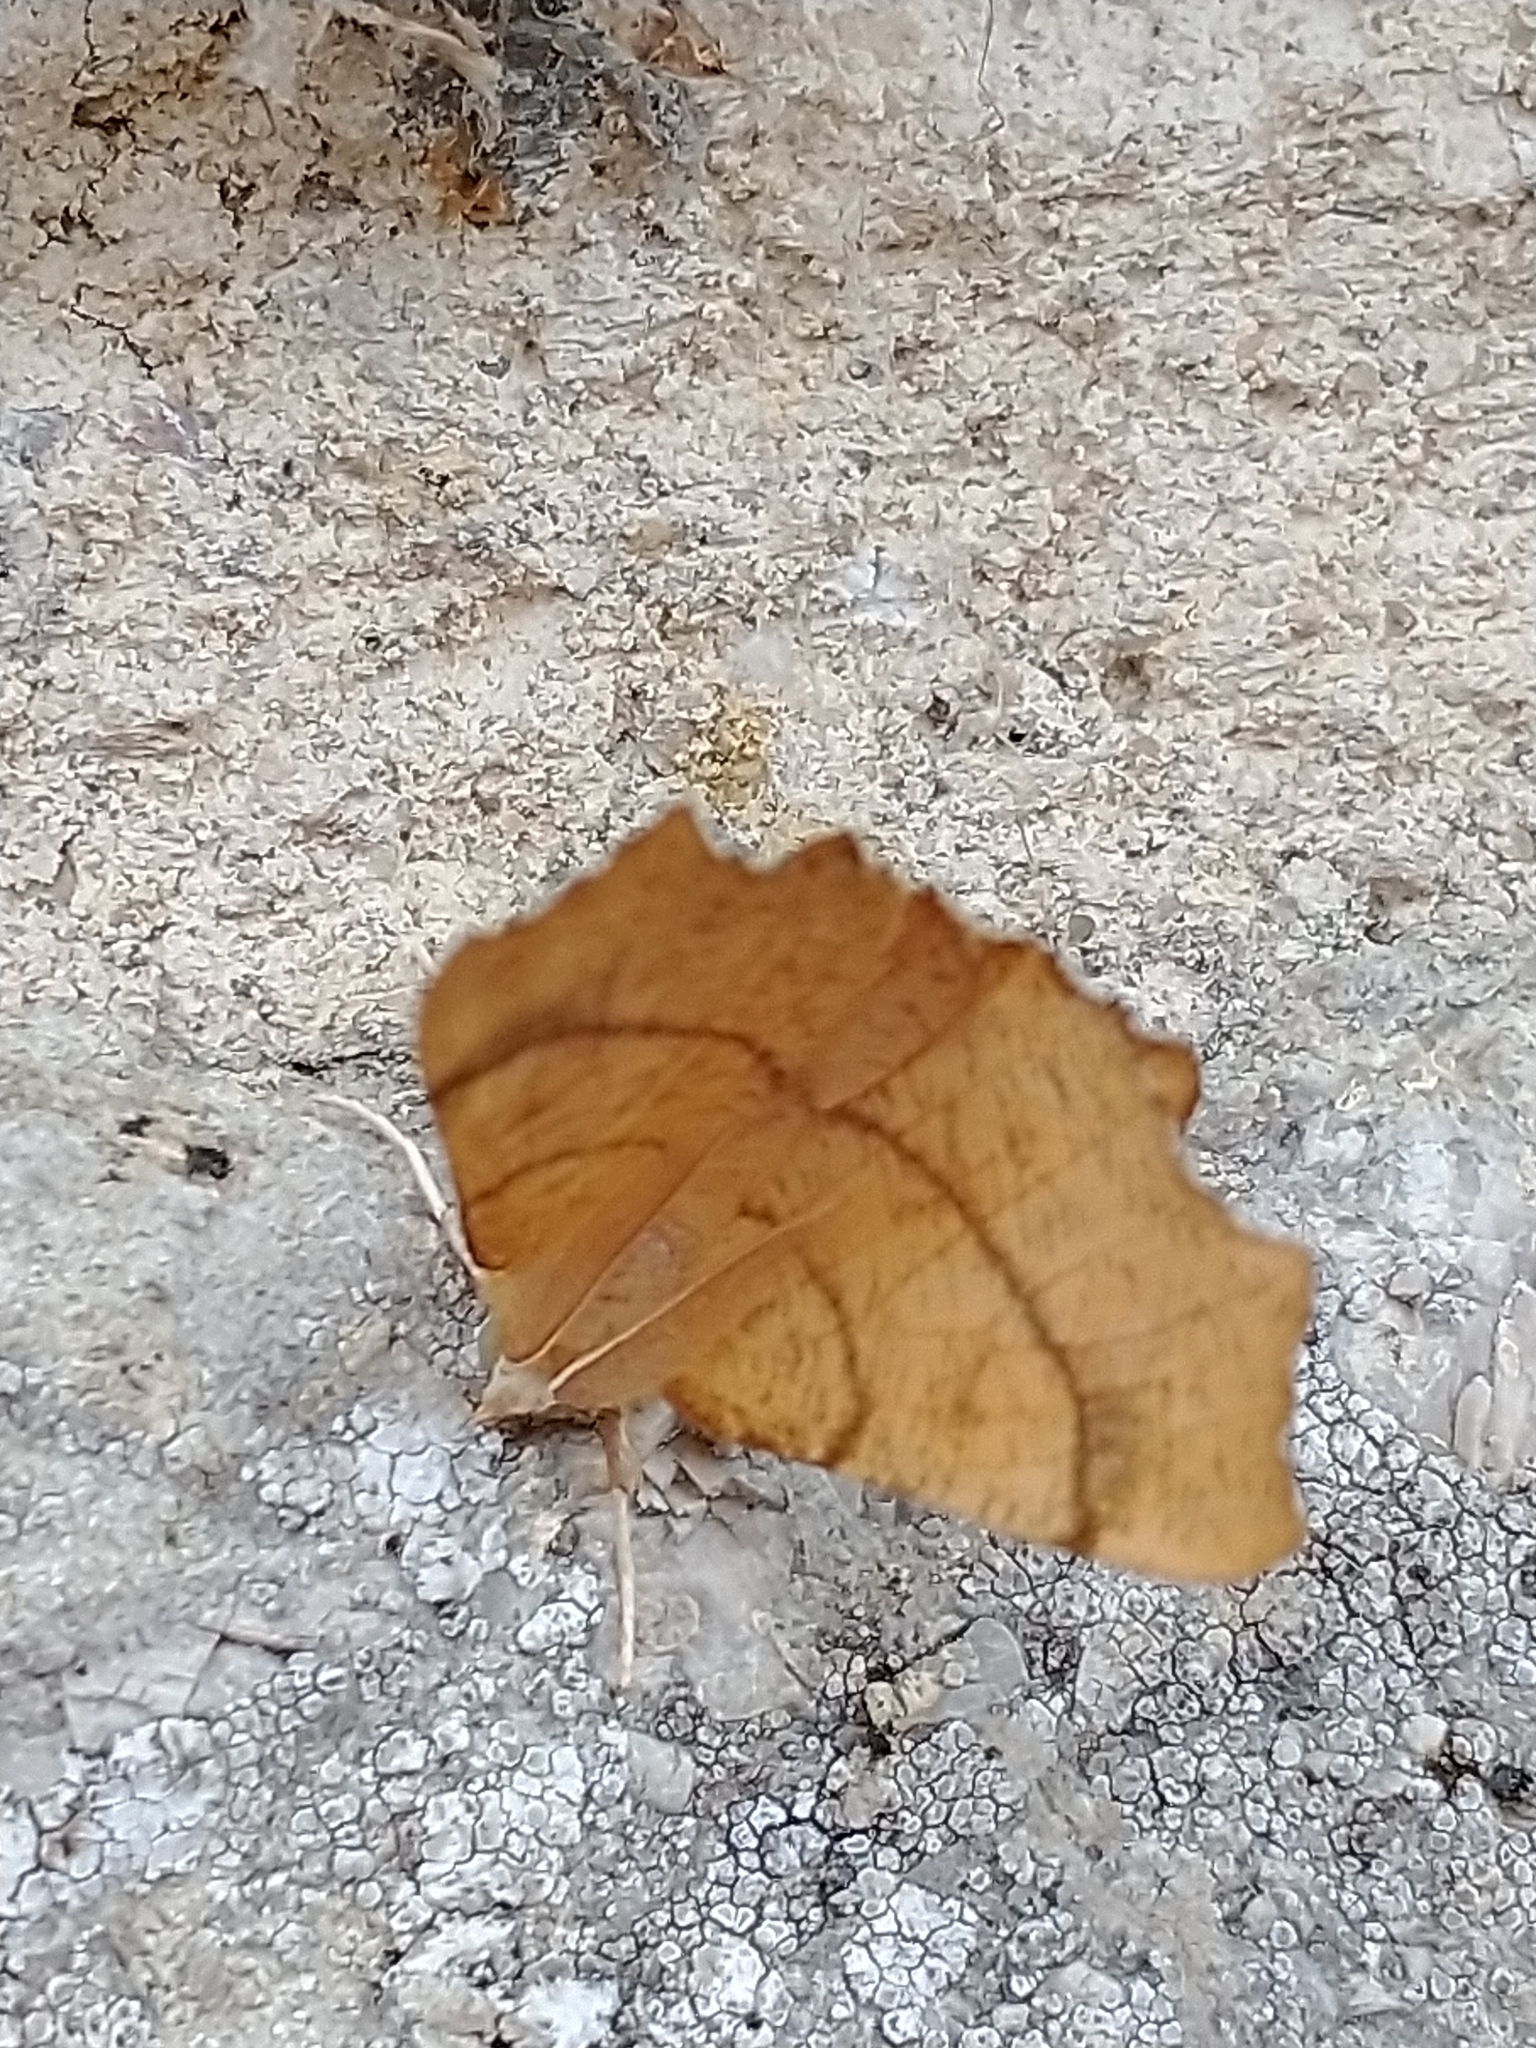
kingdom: Animalia
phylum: Arthropoda
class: Insecta
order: Lepidoptera
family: Geometridae
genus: Ennomos
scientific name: Ennomos quercinaria
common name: August thorn
